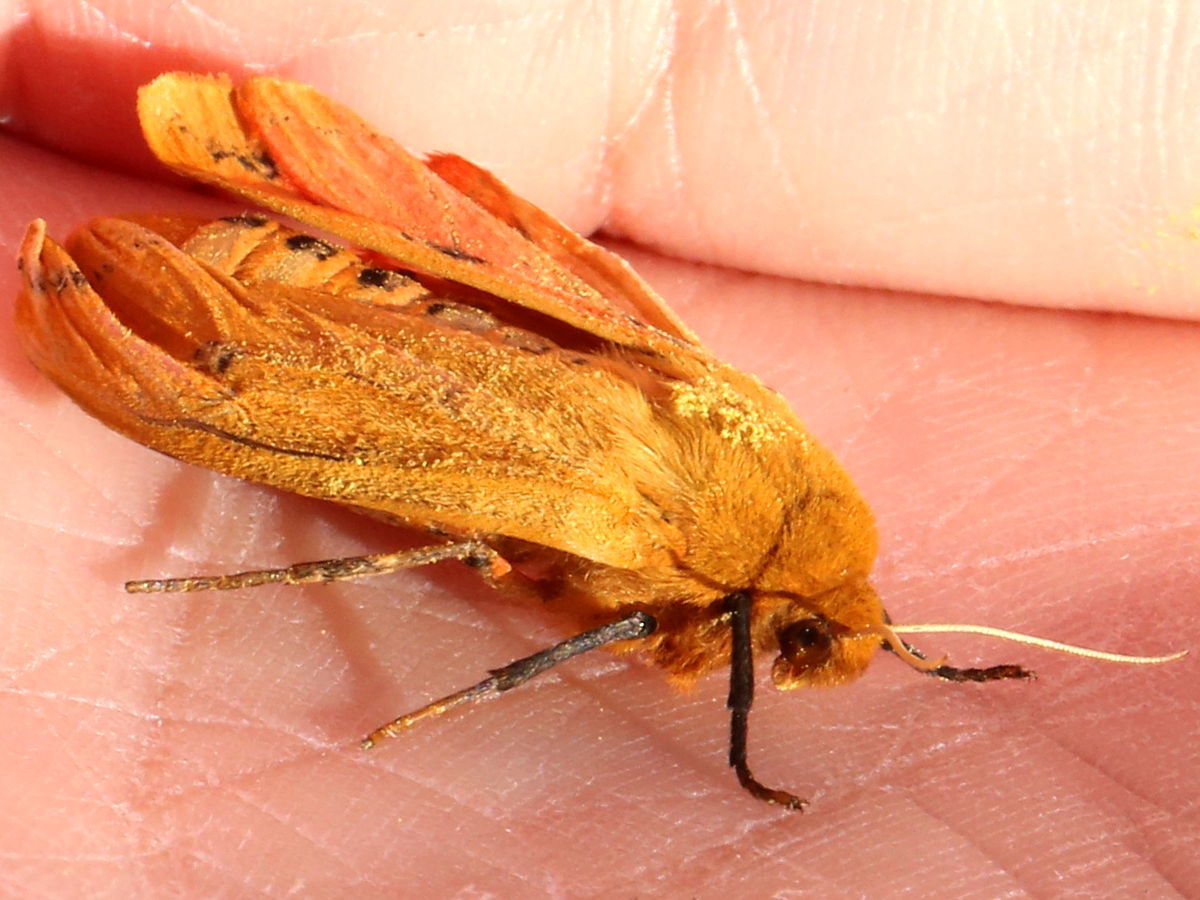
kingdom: Animalia
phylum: Arthropoda
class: Insecta
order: Lepidoptera
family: Erebidae
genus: Pyrrharctia
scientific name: Pyrrharctia isabella
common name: Isabella tiger moth
